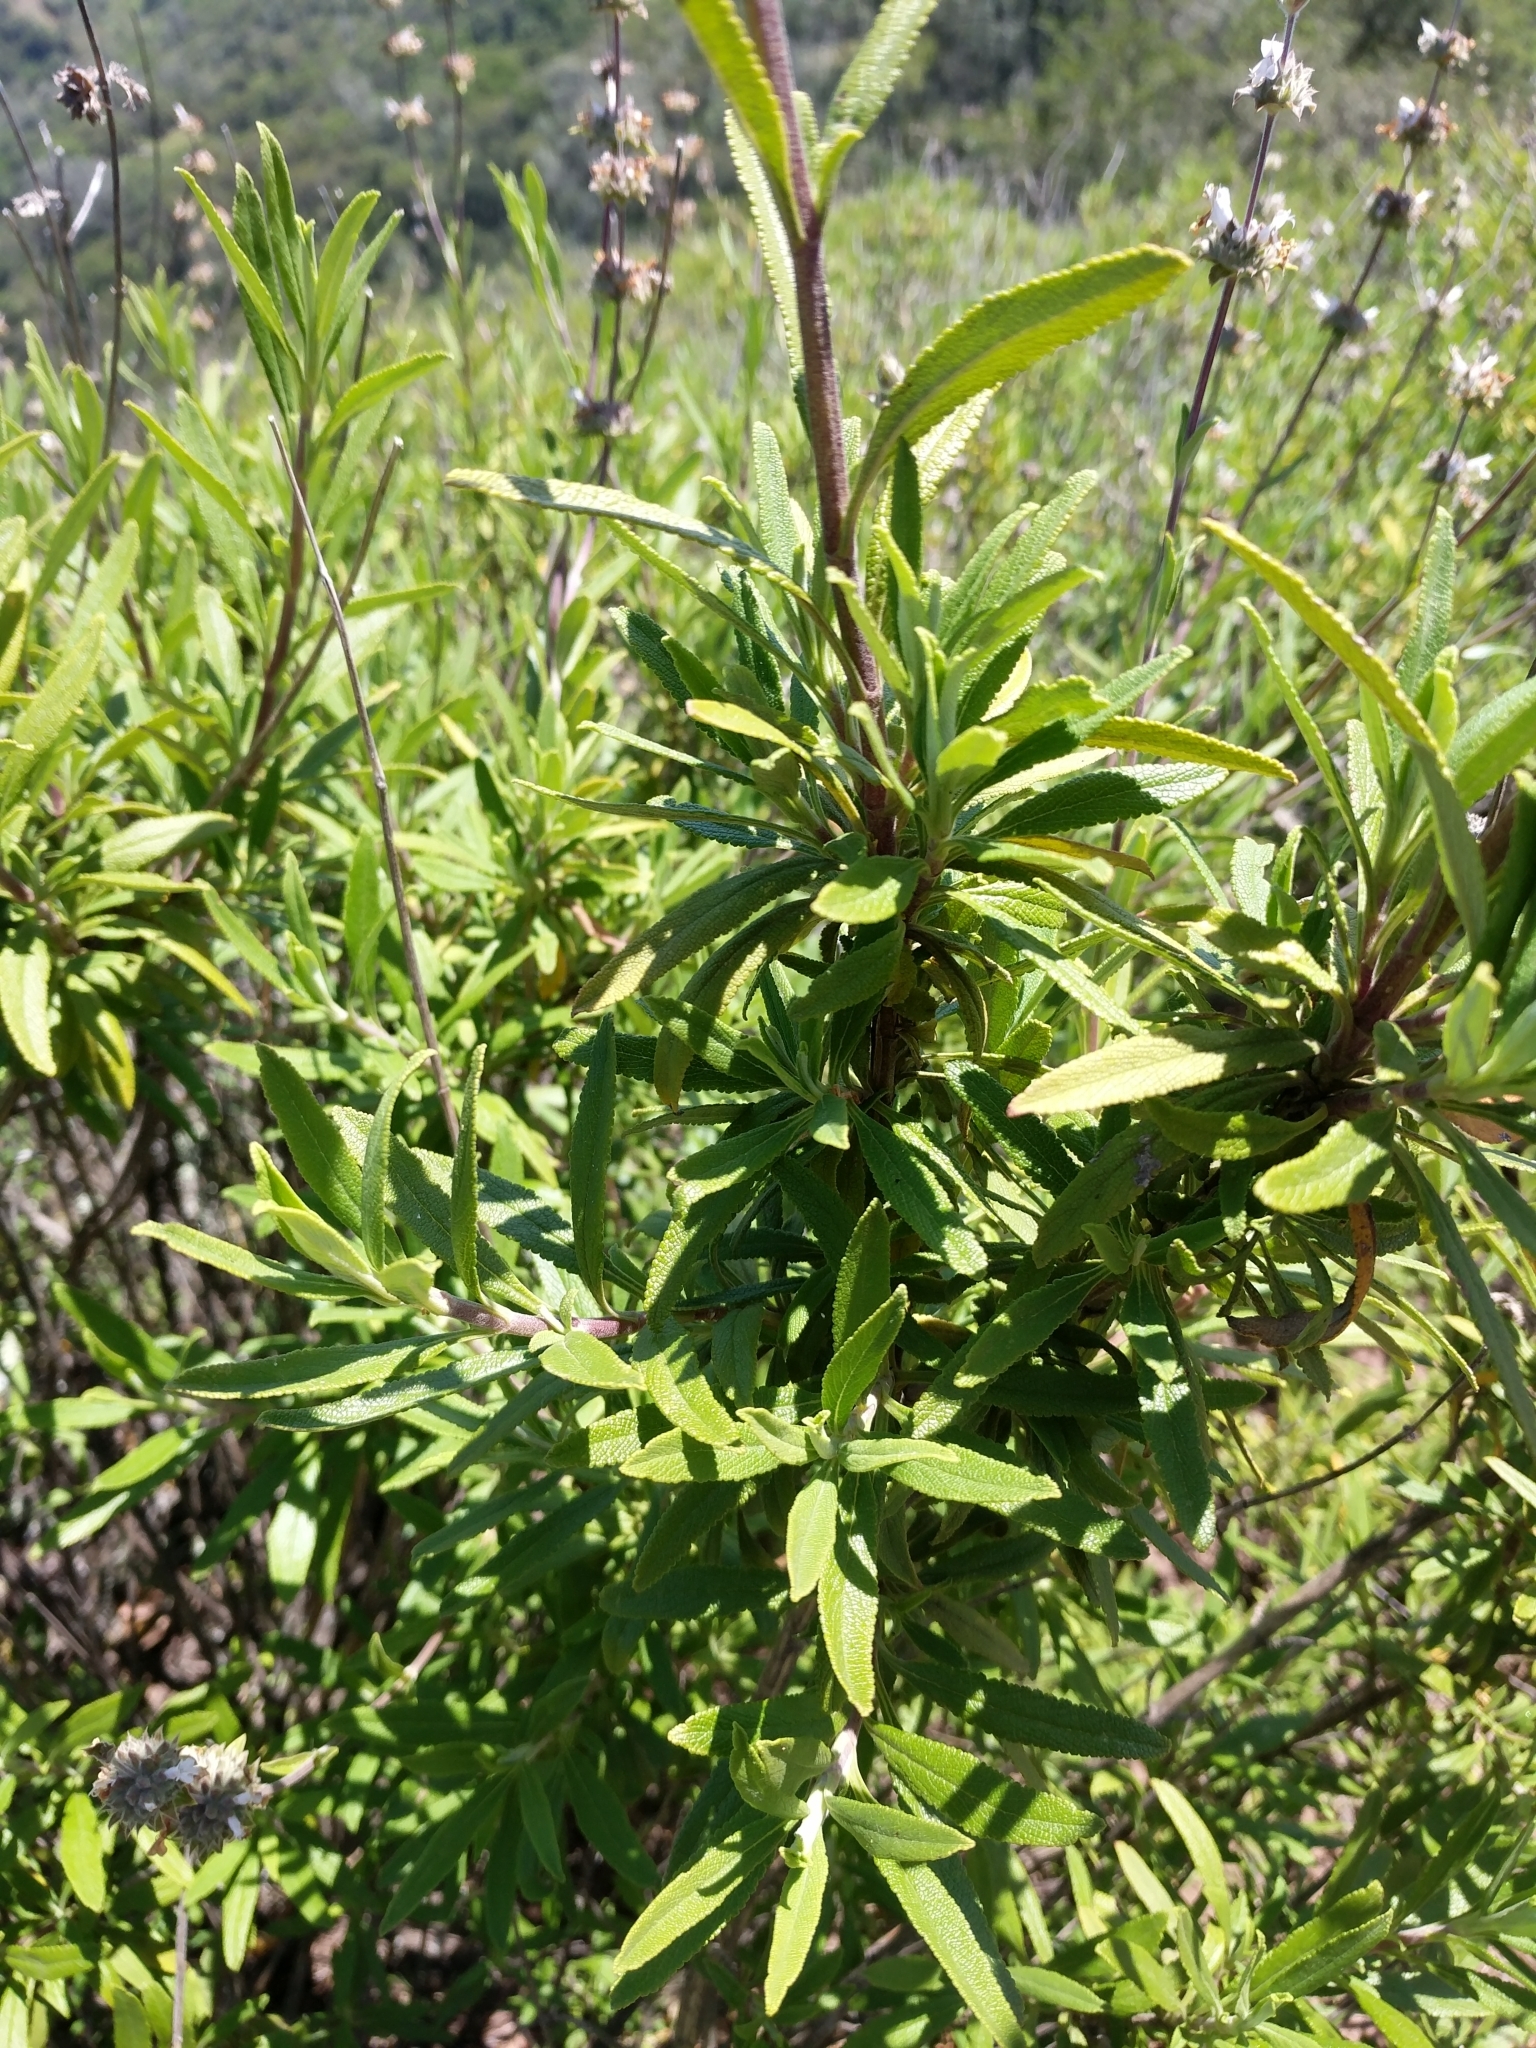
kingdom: Plantae
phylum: Tracheophyta
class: Magnoliopsida
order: Lamiales
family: Lamiaceae
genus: Salvia
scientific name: Salvia mellifera
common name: Black sage
